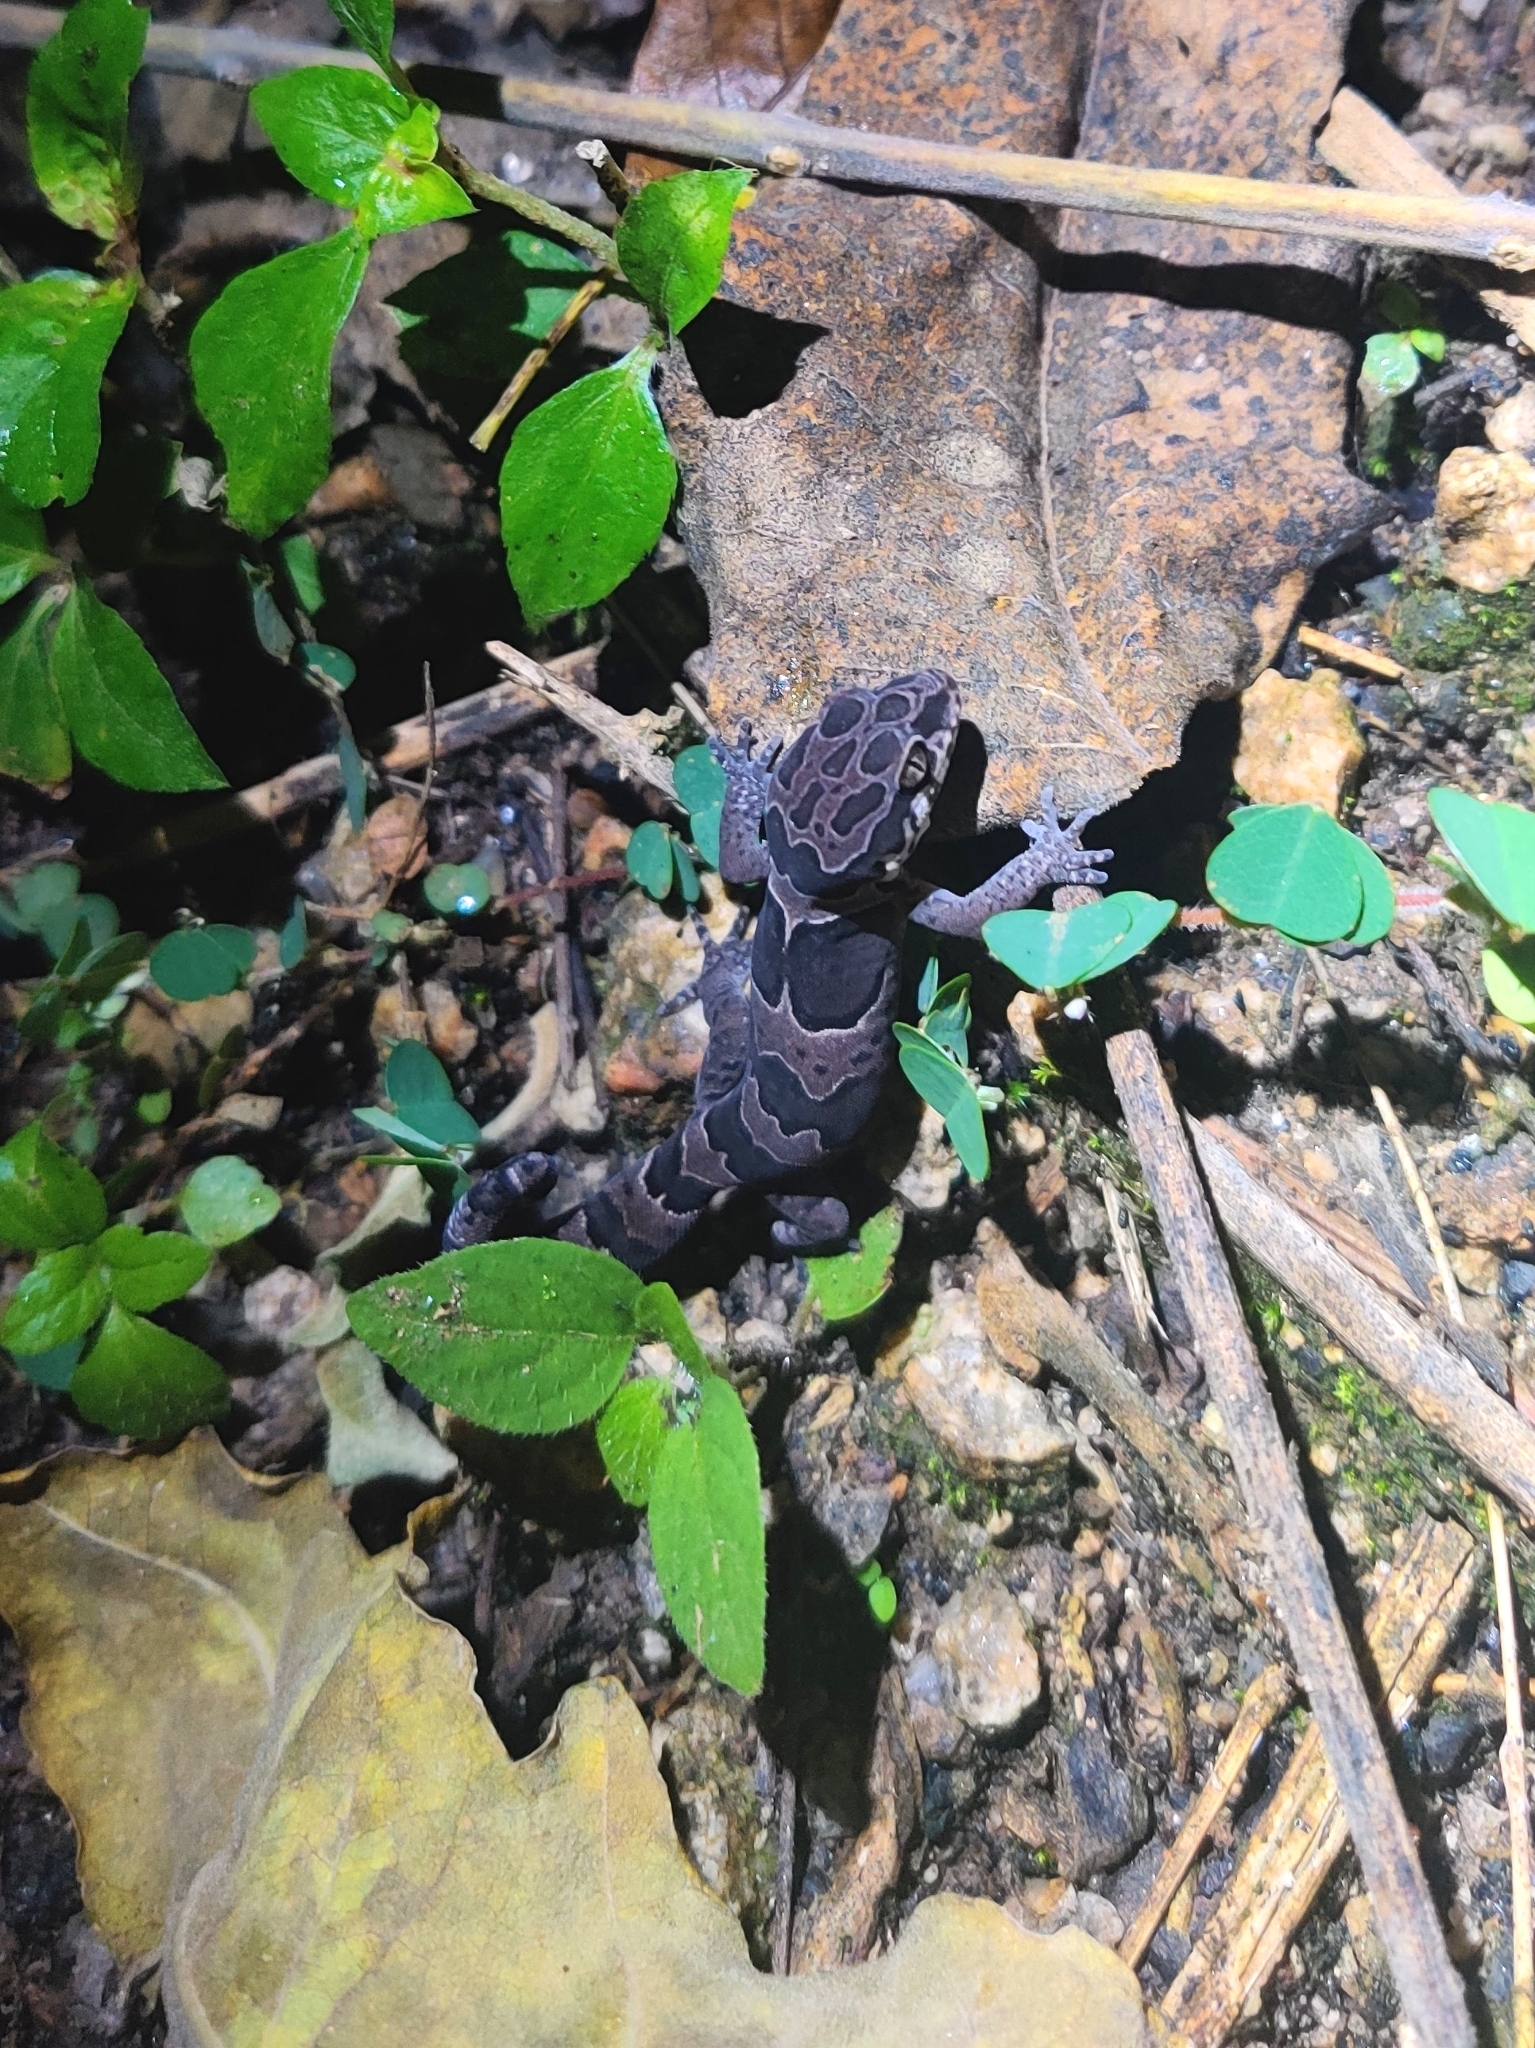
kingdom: Animalia
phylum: Chordata
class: Squamata
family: Gekkonidae
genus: Cyrtodactylus
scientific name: Cyrtodactylus collegalensis
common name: Forest spotted gecko
